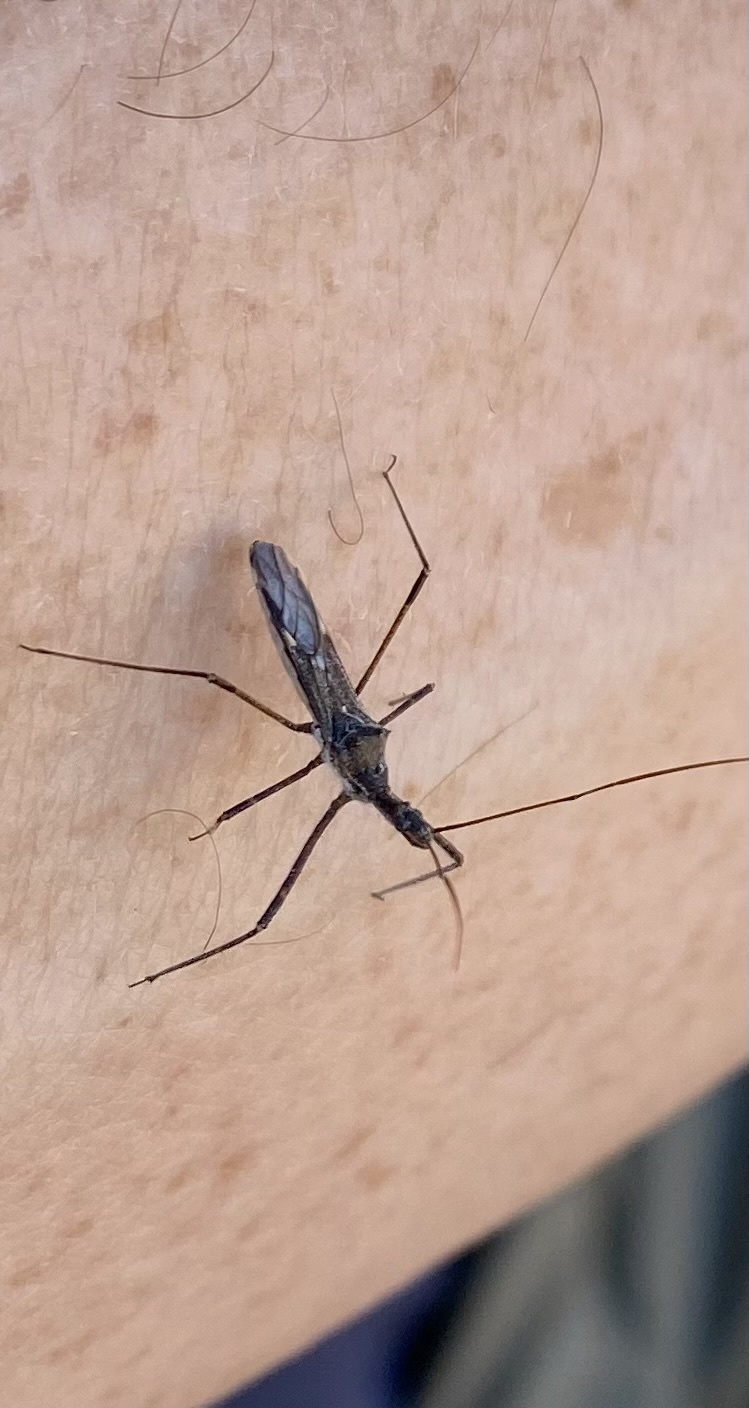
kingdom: Animalia
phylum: Arthropoda
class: Insecta
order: Hemiptera
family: Reduviidae
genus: Zelus
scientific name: Zelus tetracanthus
